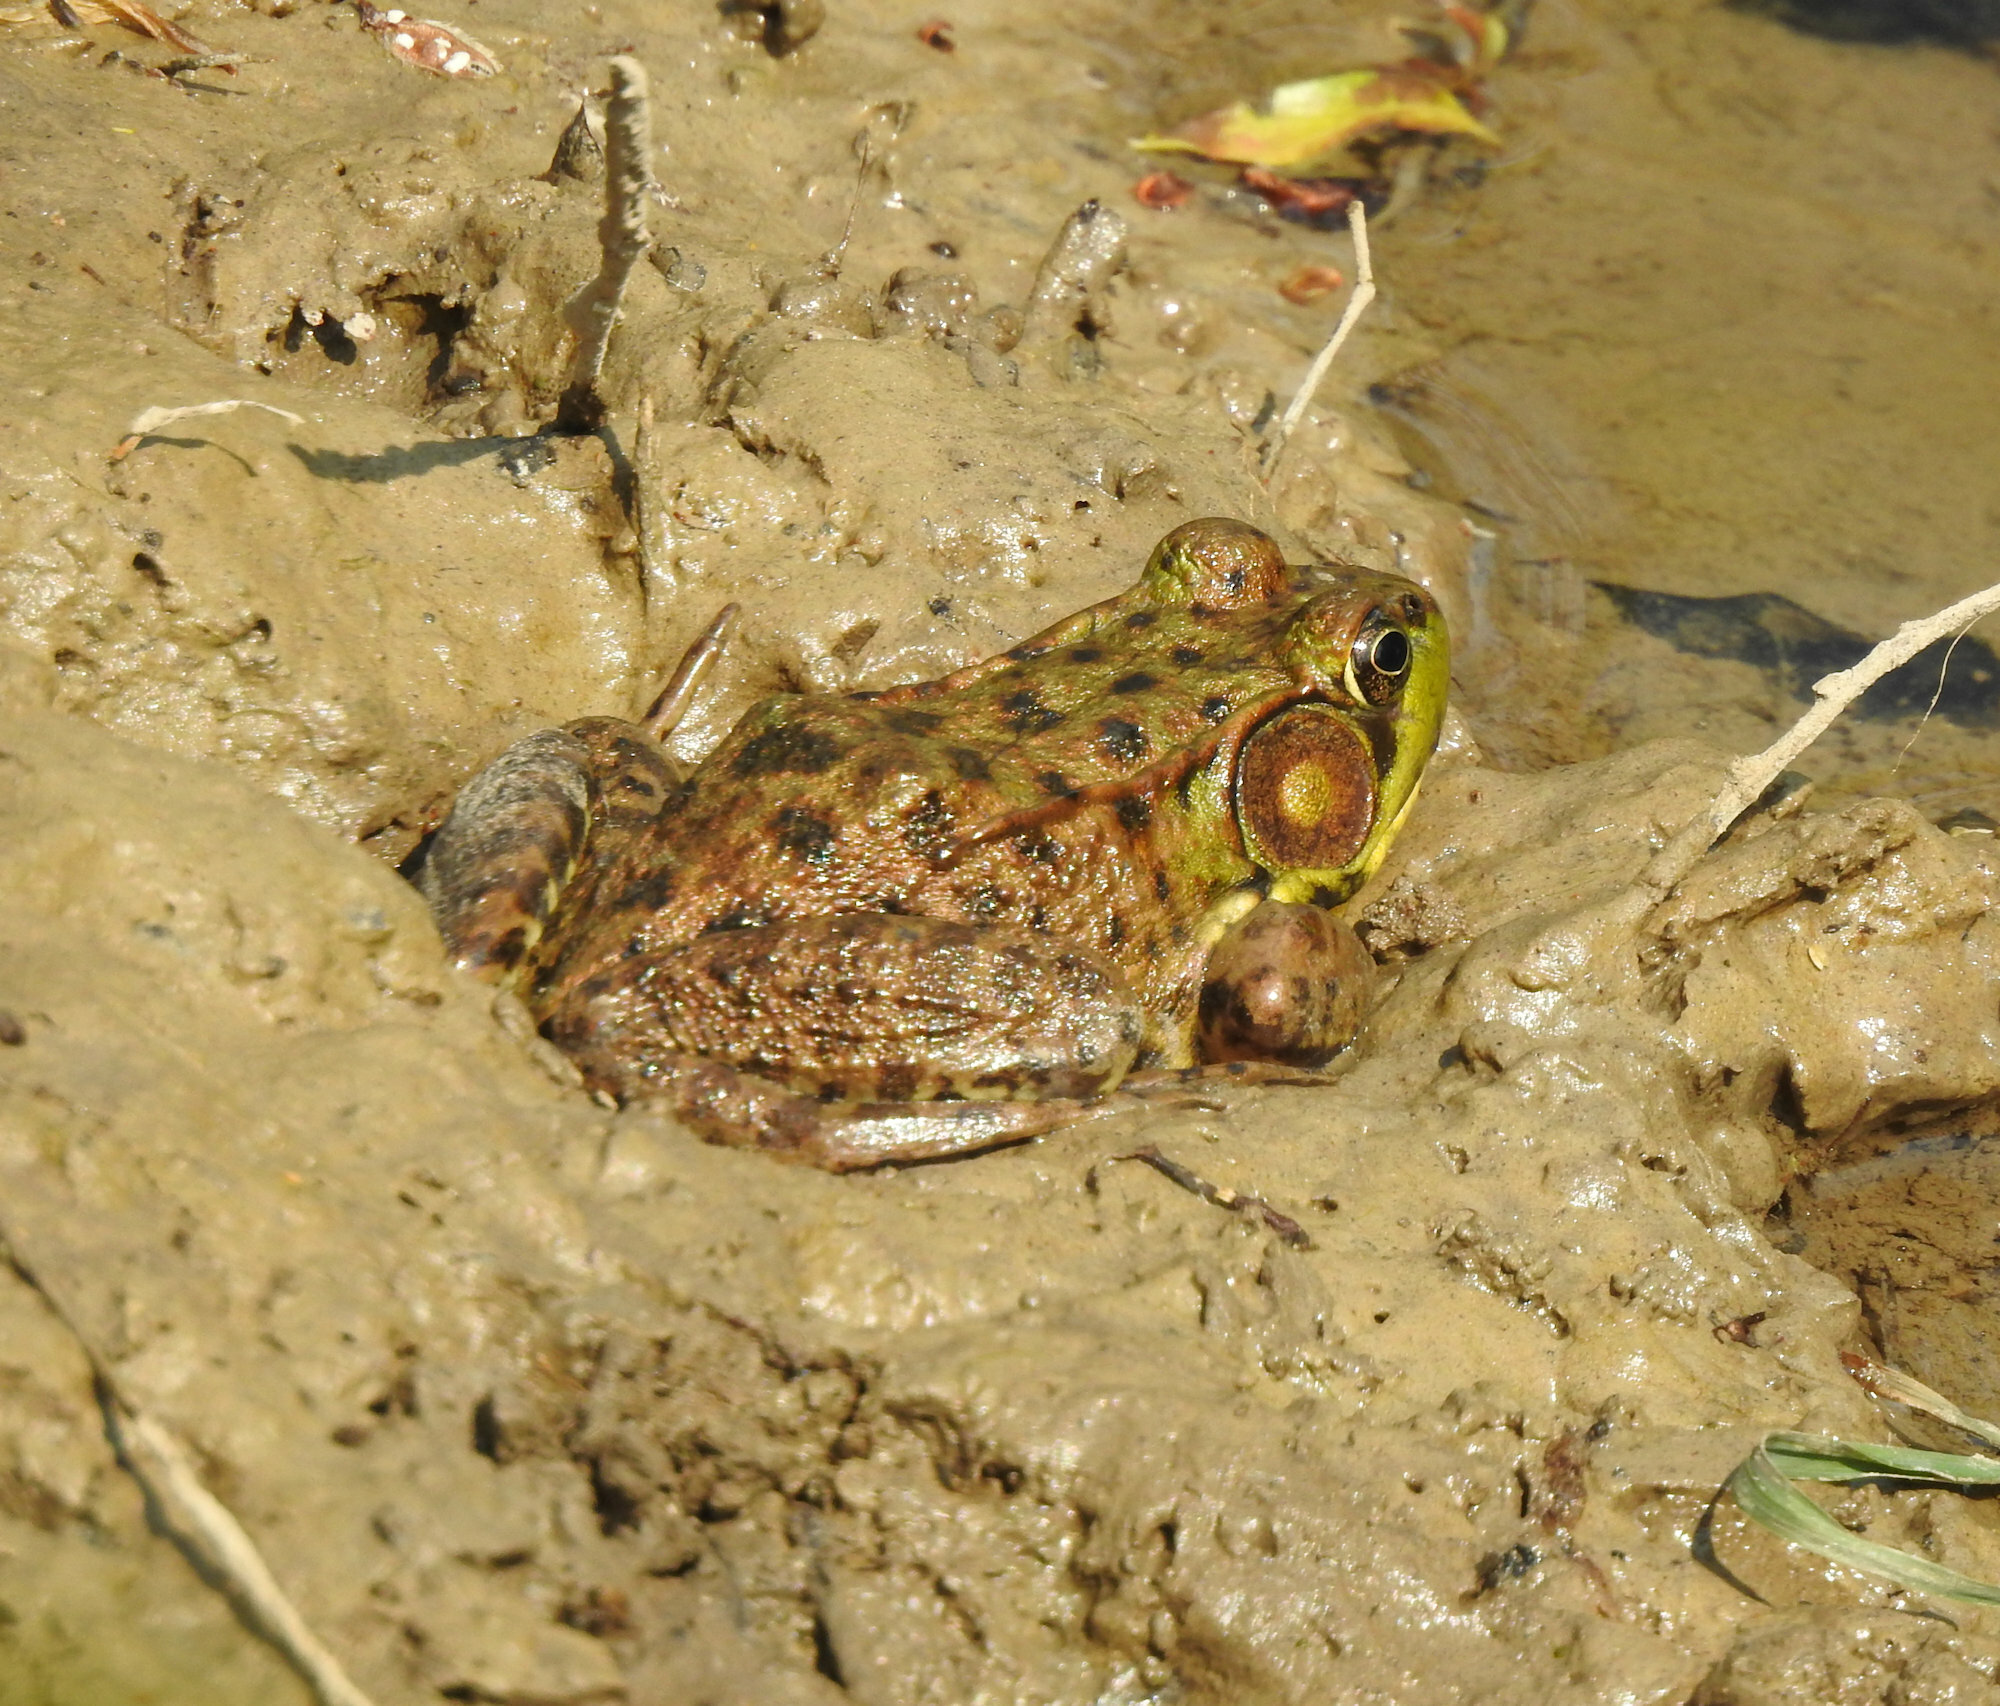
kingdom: Animalia
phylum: Chordata
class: Amphibia
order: Anura
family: Ranidae
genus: Lithobates
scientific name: Lithobates clamitans
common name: Green frog
